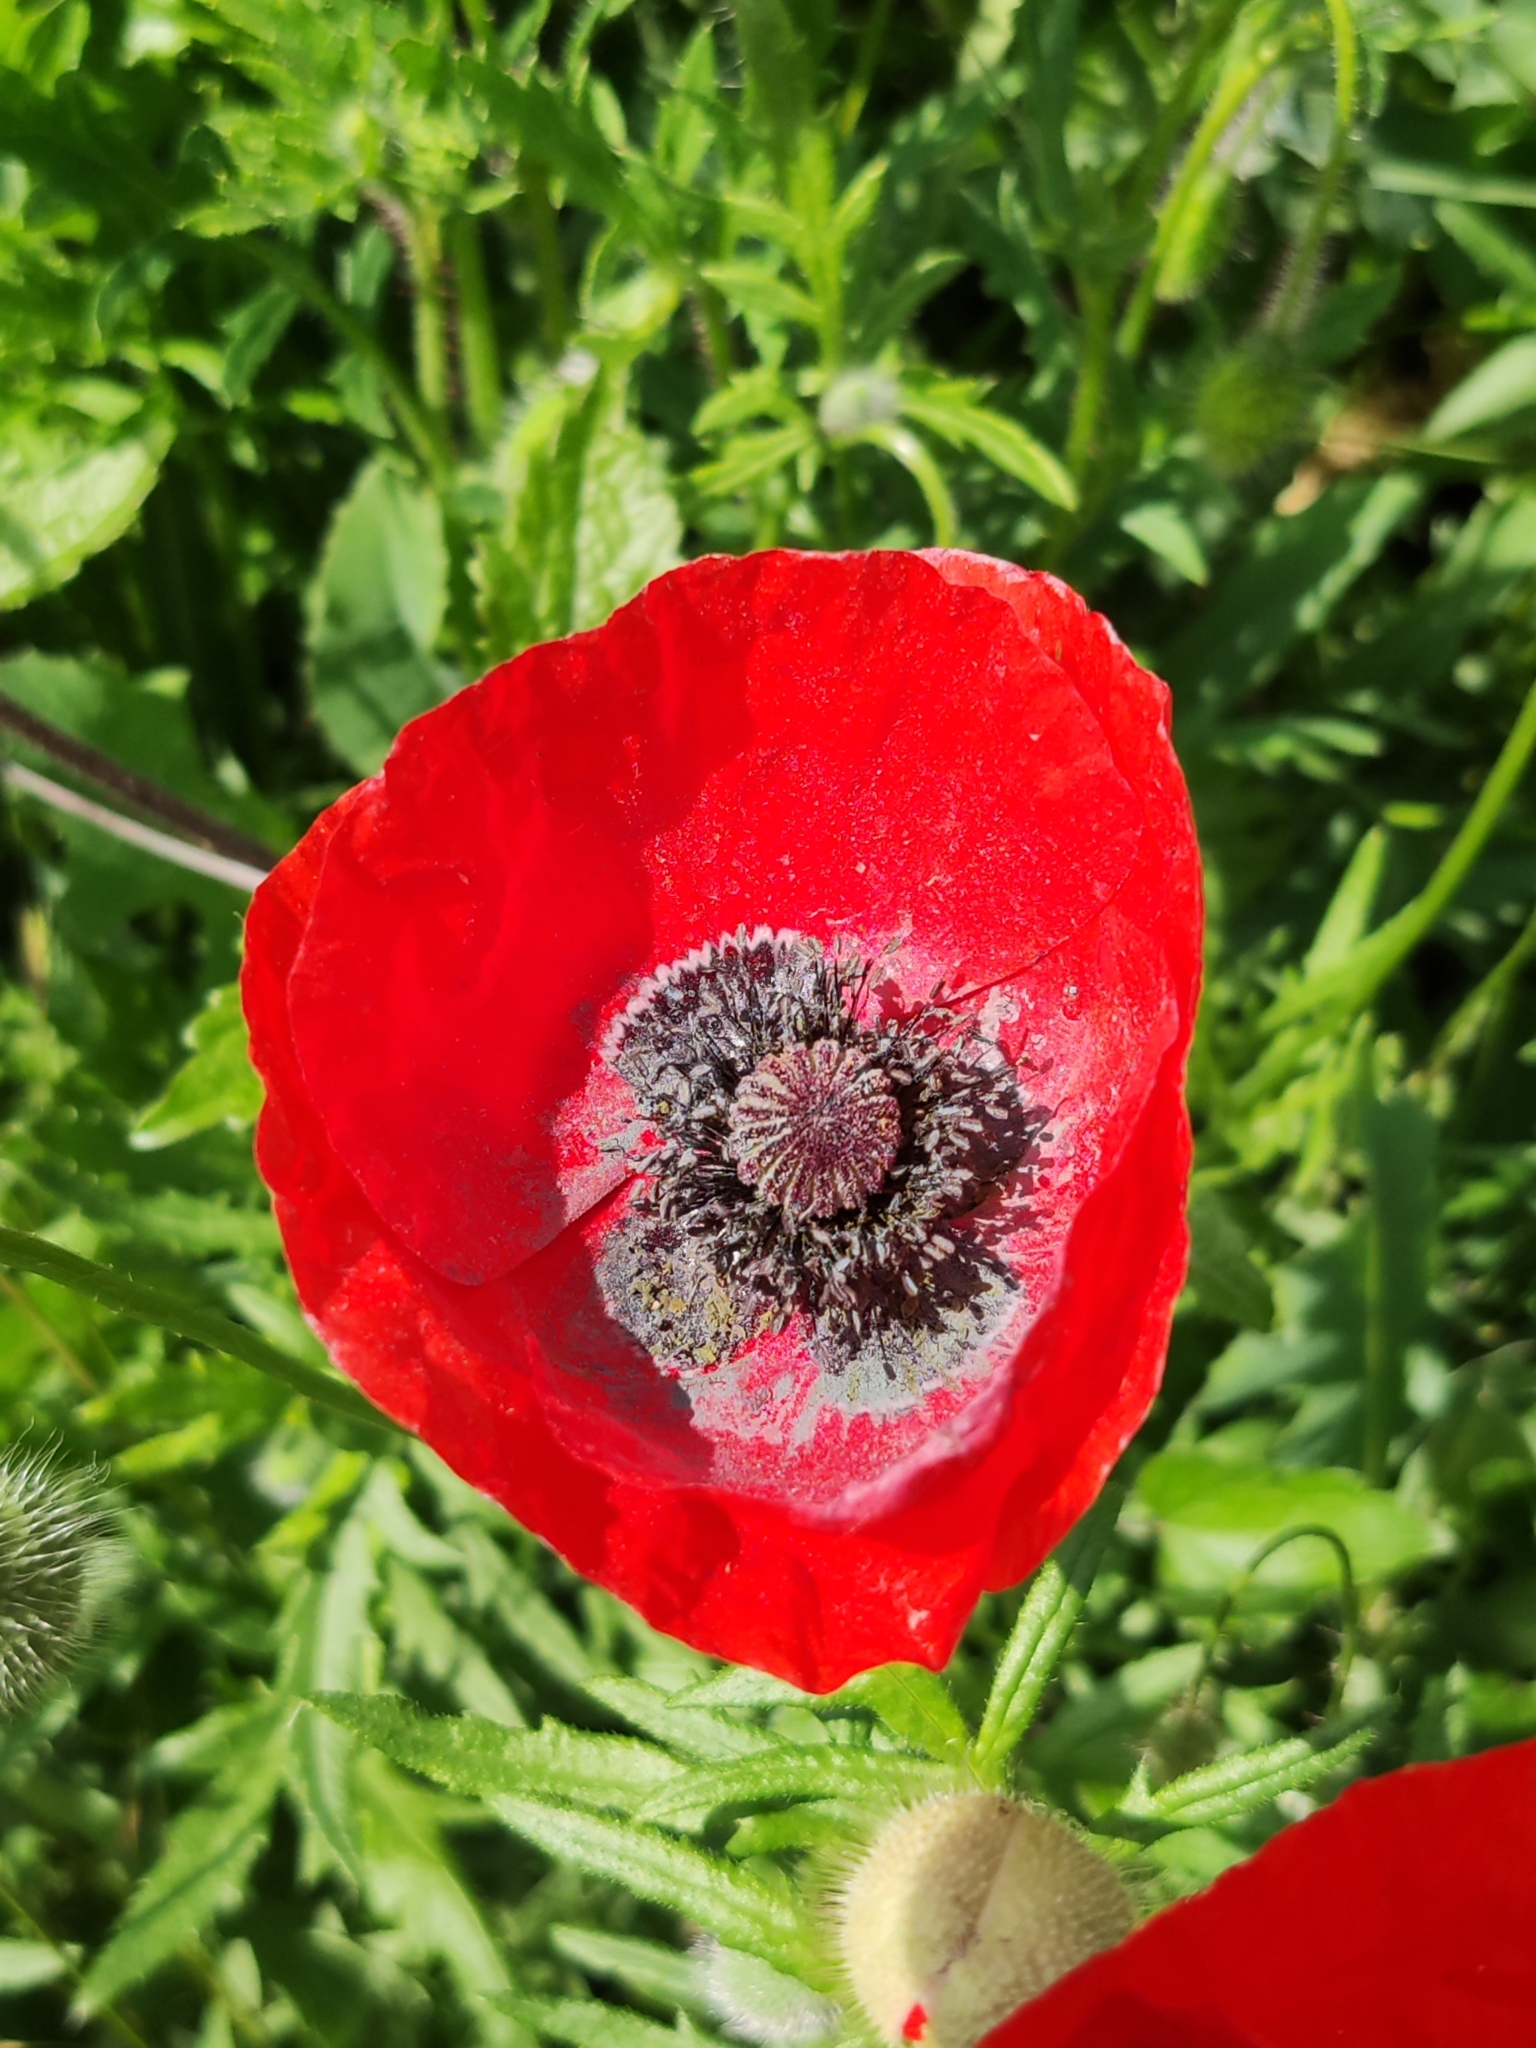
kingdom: Plantae
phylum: Tracheophyta
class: Magnoliopsida
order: Ranunculales
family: Papaveraceae
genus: Papaver
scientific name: Papaver rhoeas
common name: Corn poppy
